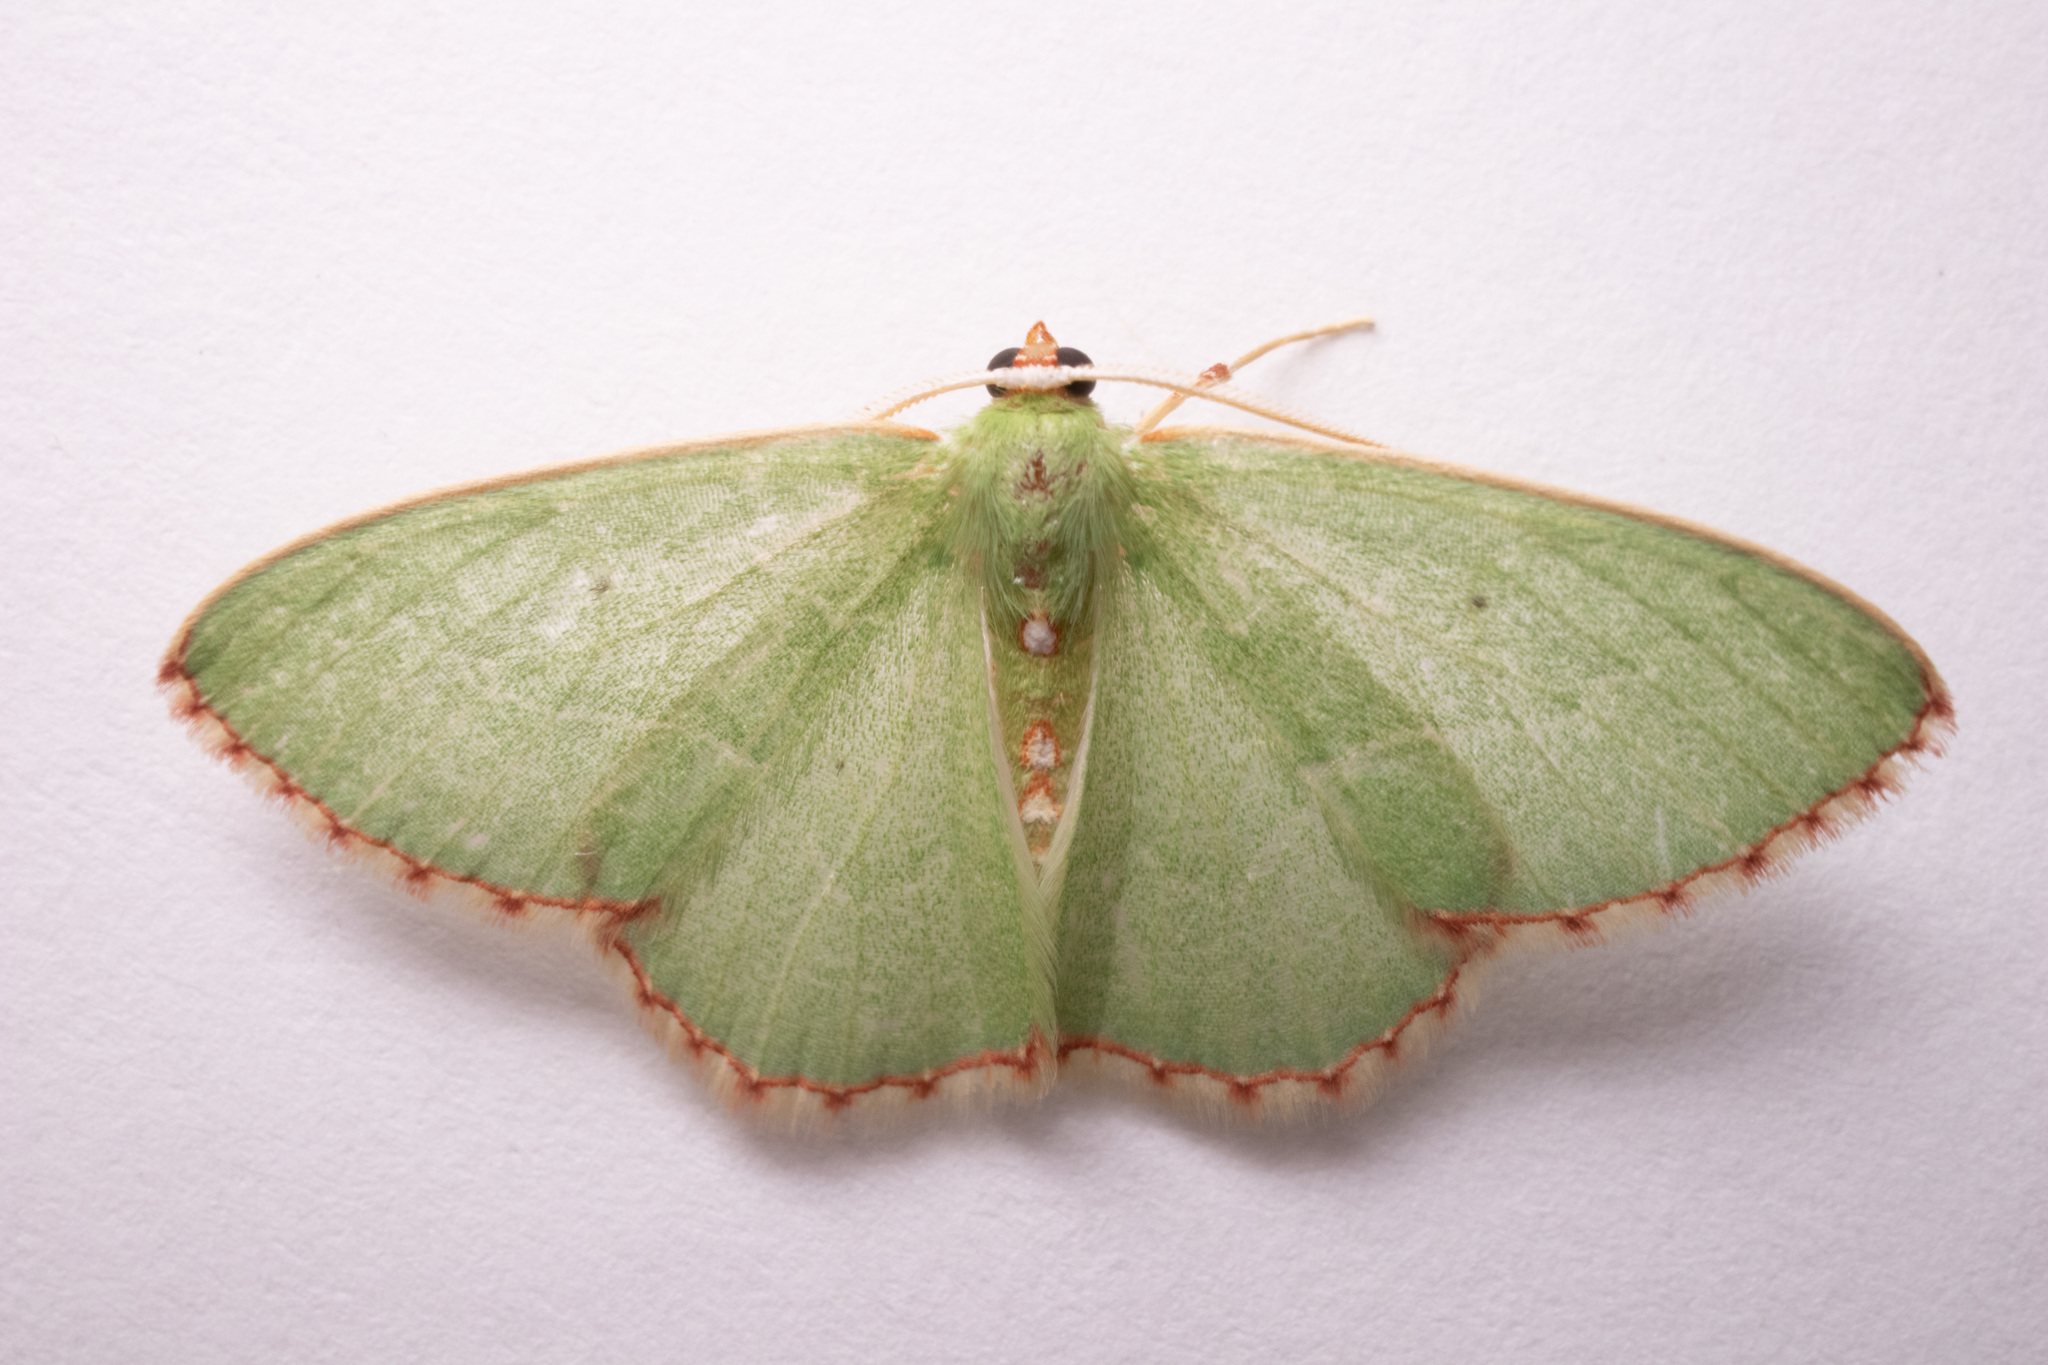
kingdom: Animalia
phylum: Arthropoda
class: Insecta
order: Lepidoptera
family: Geometridae
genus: Nemoria
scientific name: Nemoria lixaria
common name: Red-bordered emerald
